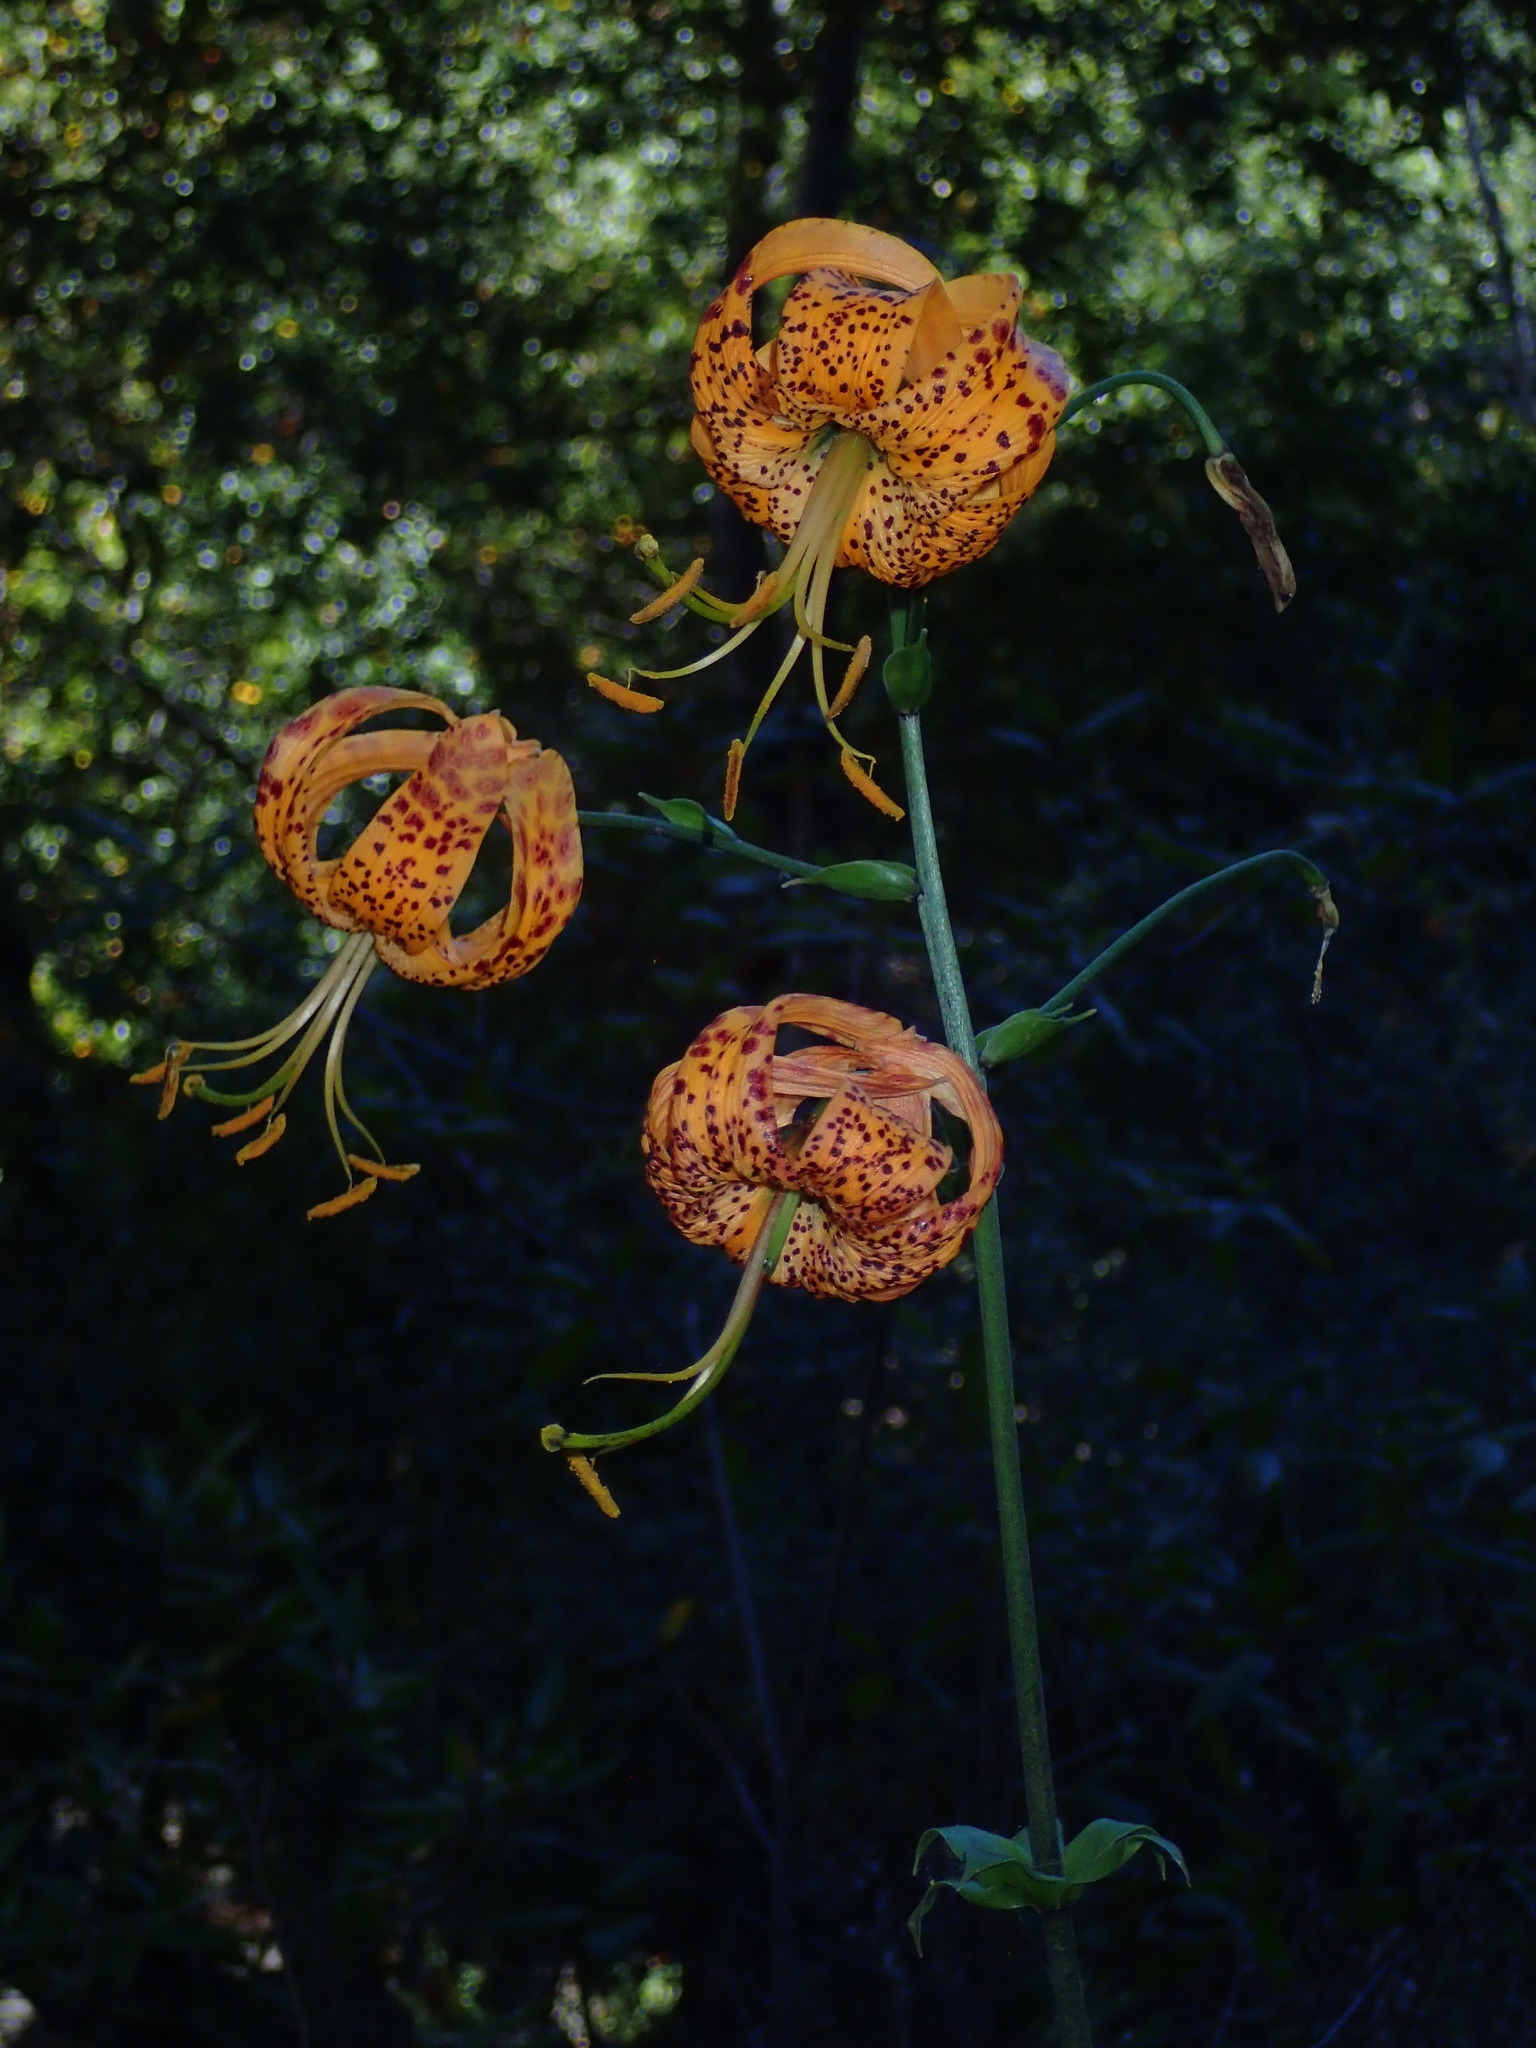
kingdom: Plantae
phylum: Tracheophyta
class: Liliopsida
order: Liliales
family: Liliaceae
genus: Lilium
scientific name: Lilium humboldtii
